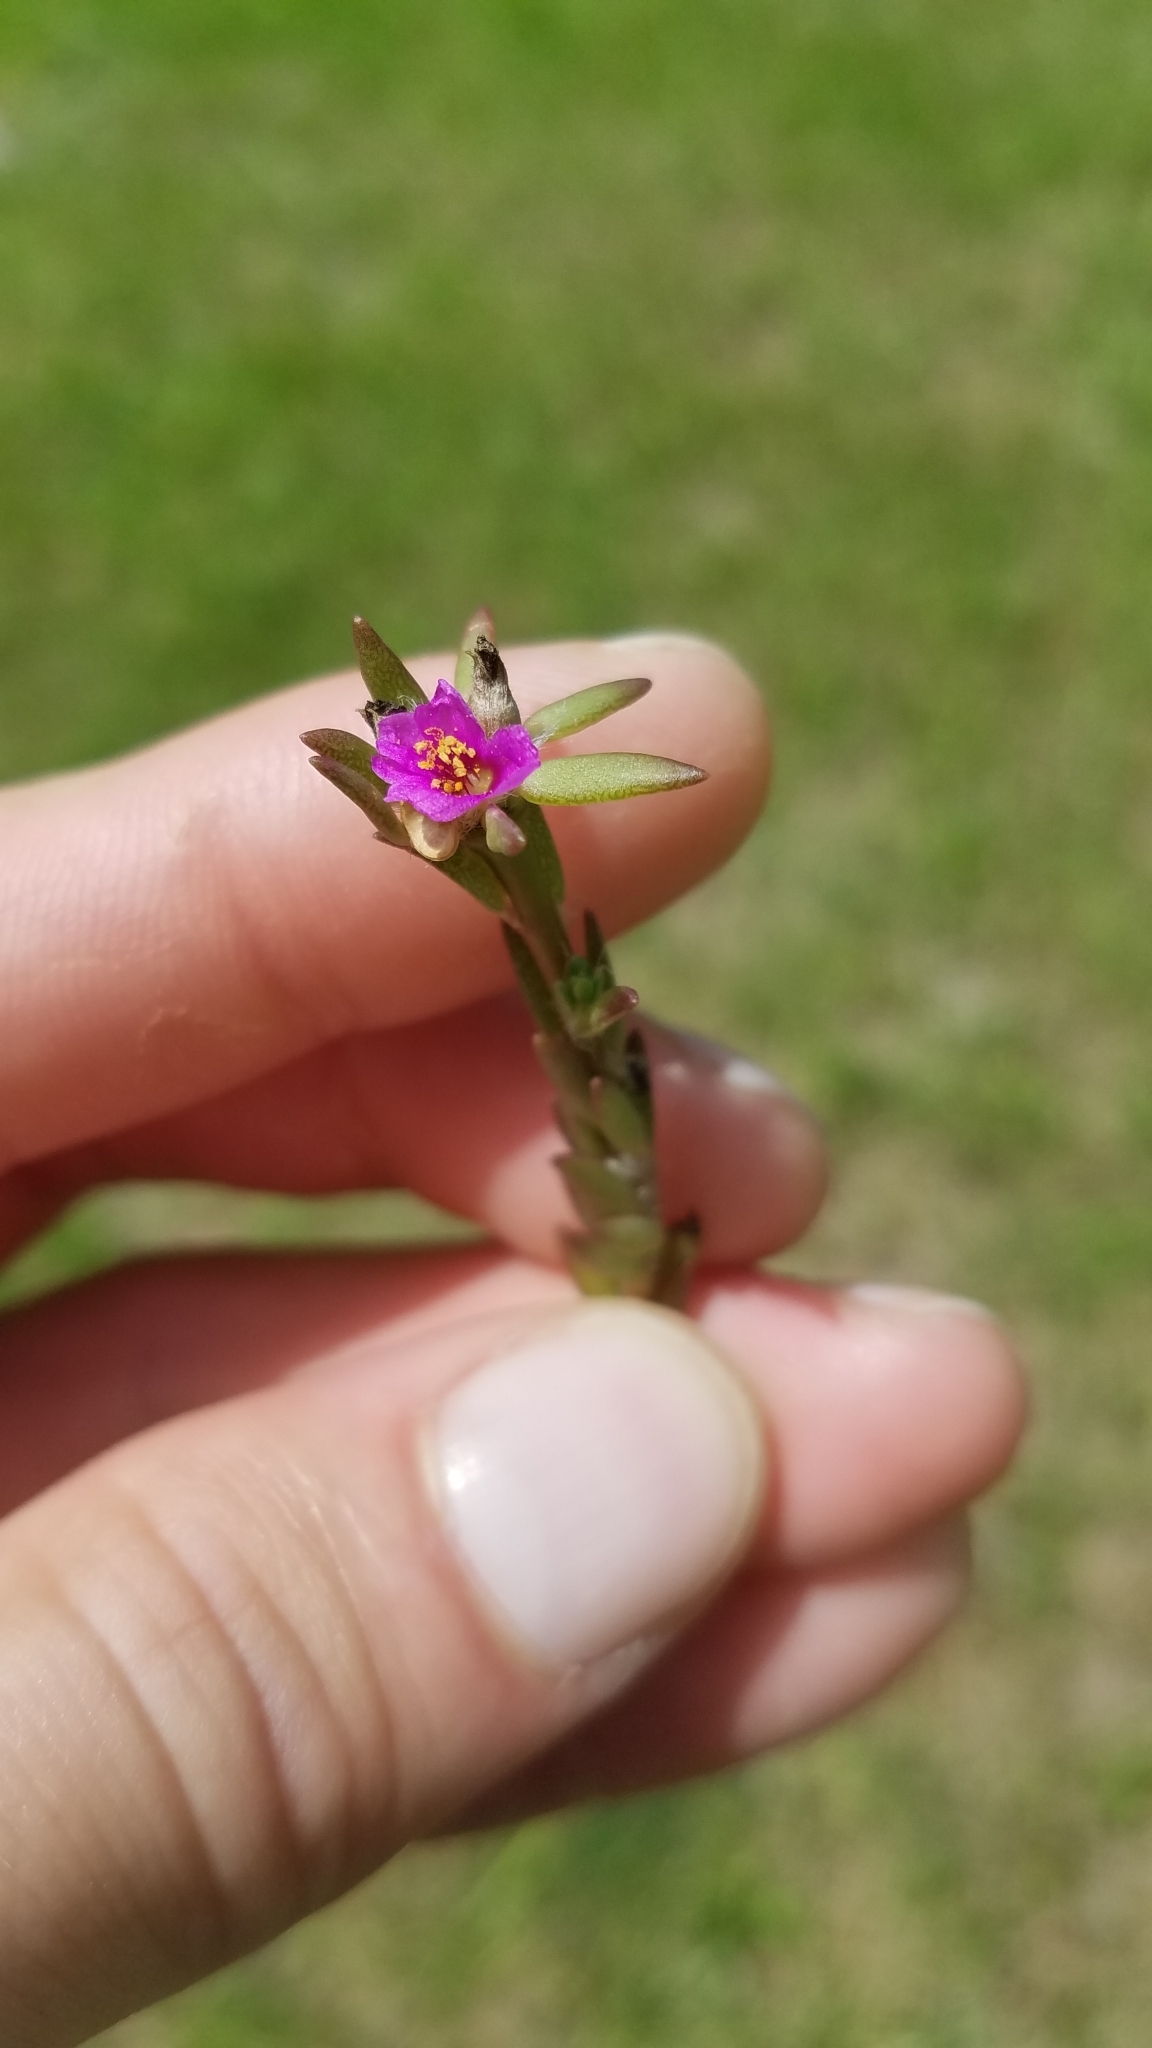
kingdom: Plantae
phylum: Tracheophyta
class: Magnoliopsida
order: Caryophyllales
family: Portulacaceae
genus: Portulaca
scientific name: Portulaca pilosa
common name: Kiss me quick
